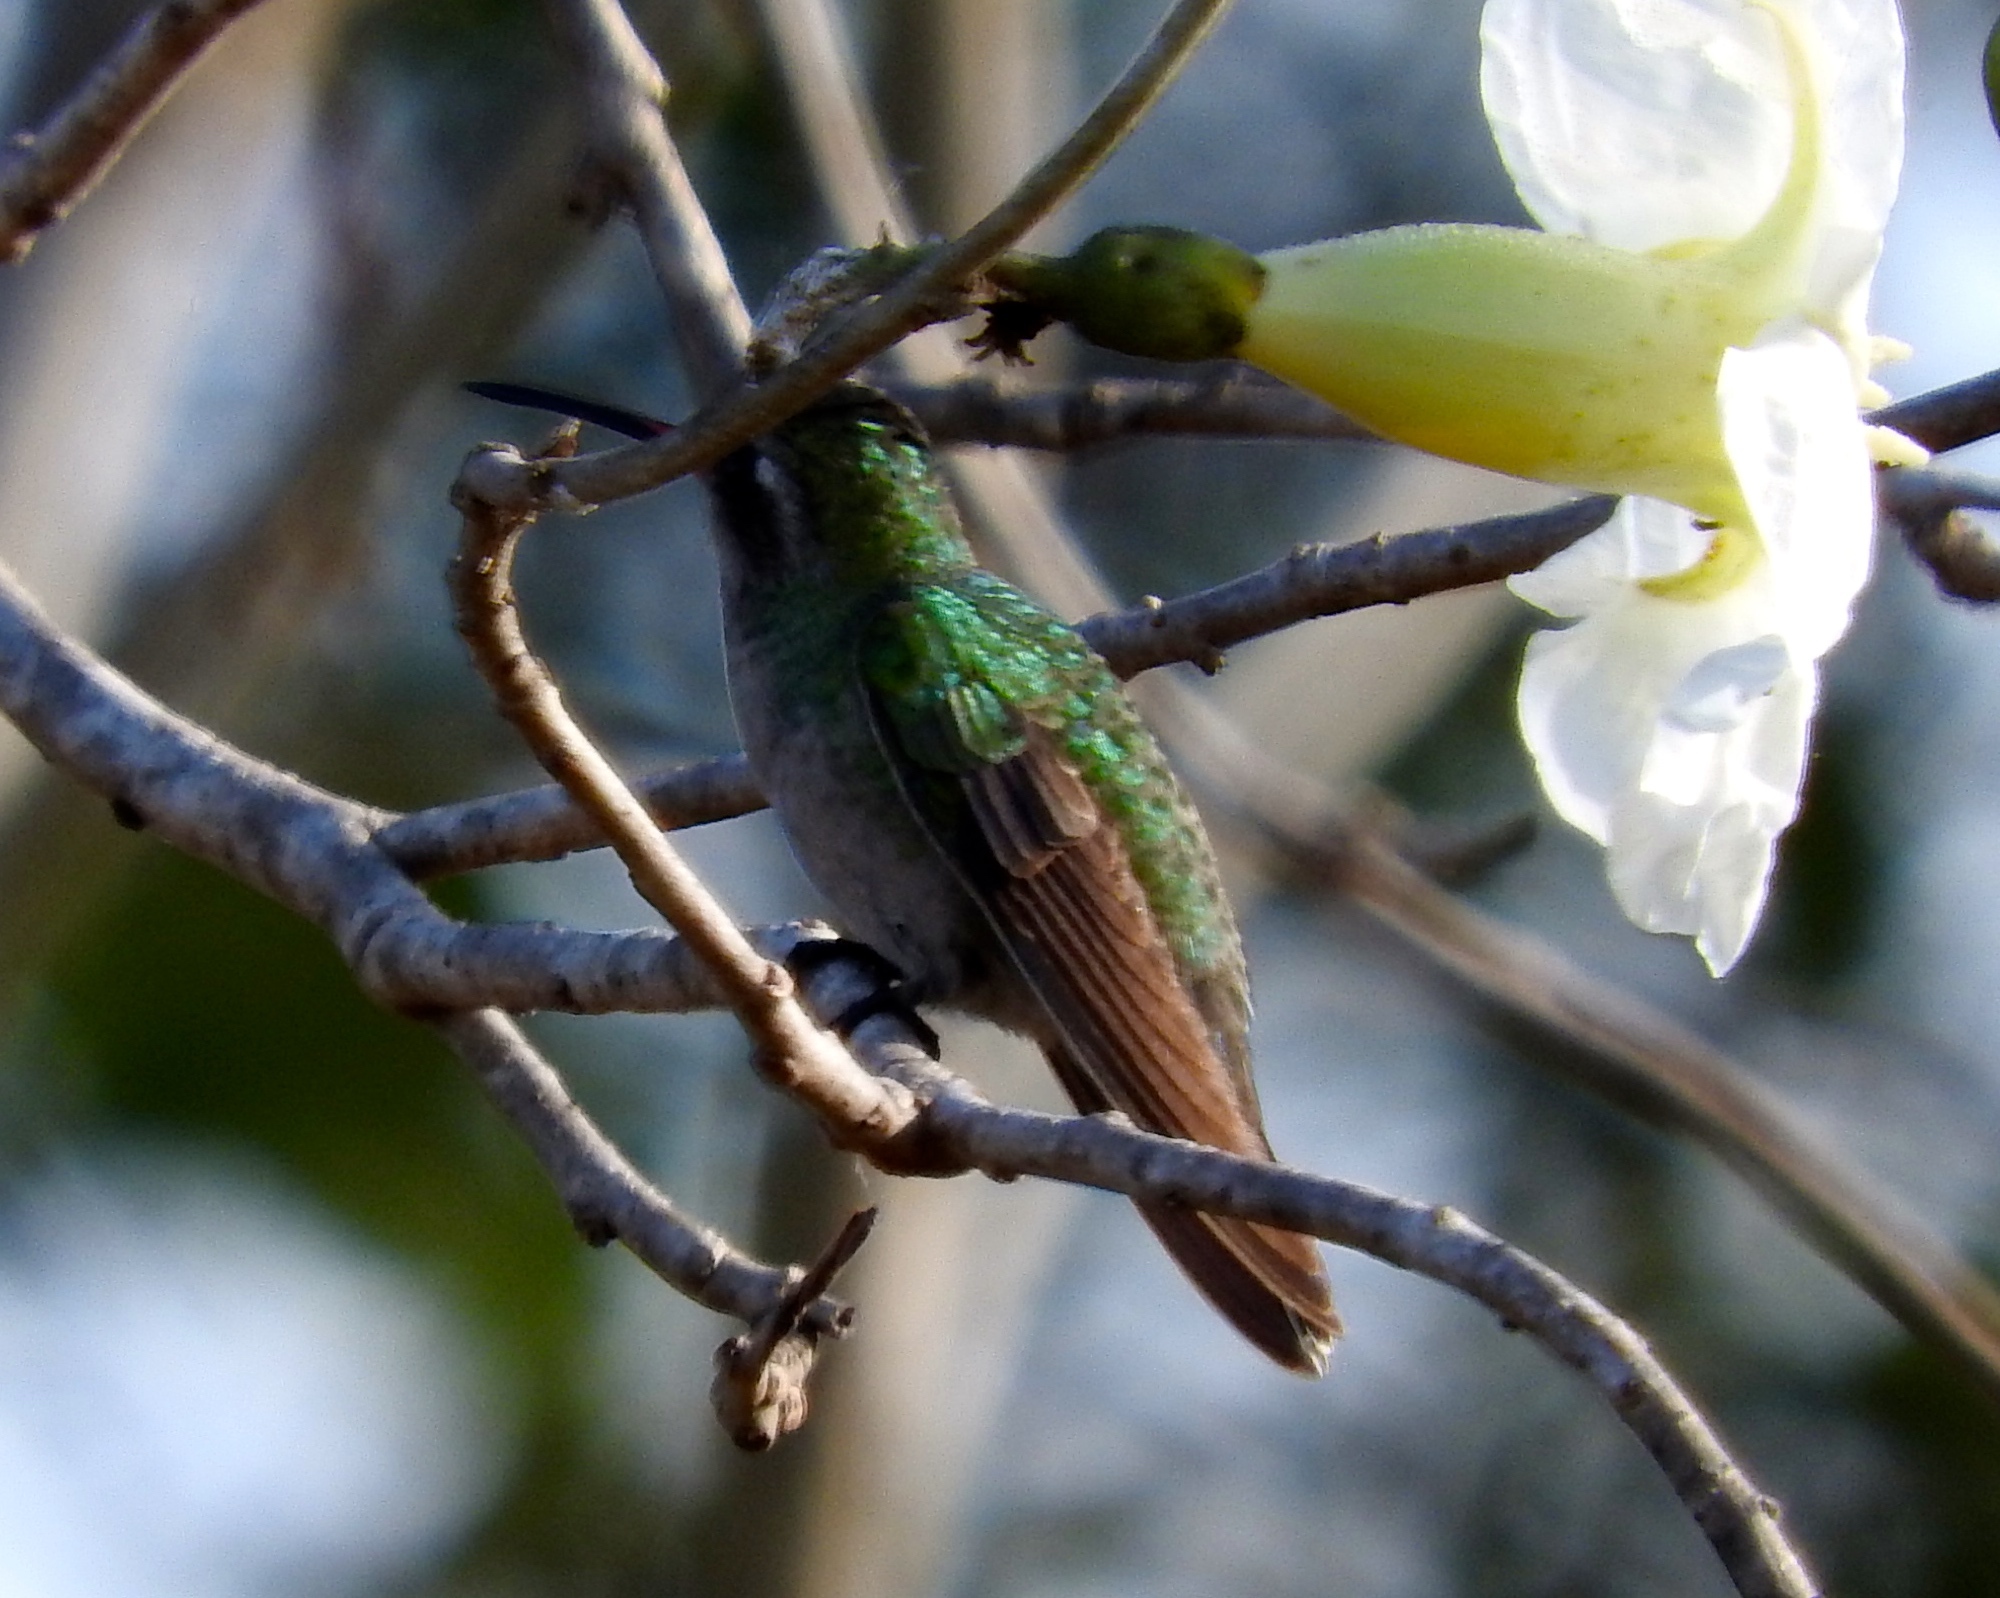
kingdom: Animalia
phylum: Chordata
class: Aves
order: Apodiformes
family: Trochilidae
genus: Cynanthus
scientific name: Cynanthus latirostris
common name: Broad-billed hummingbird
